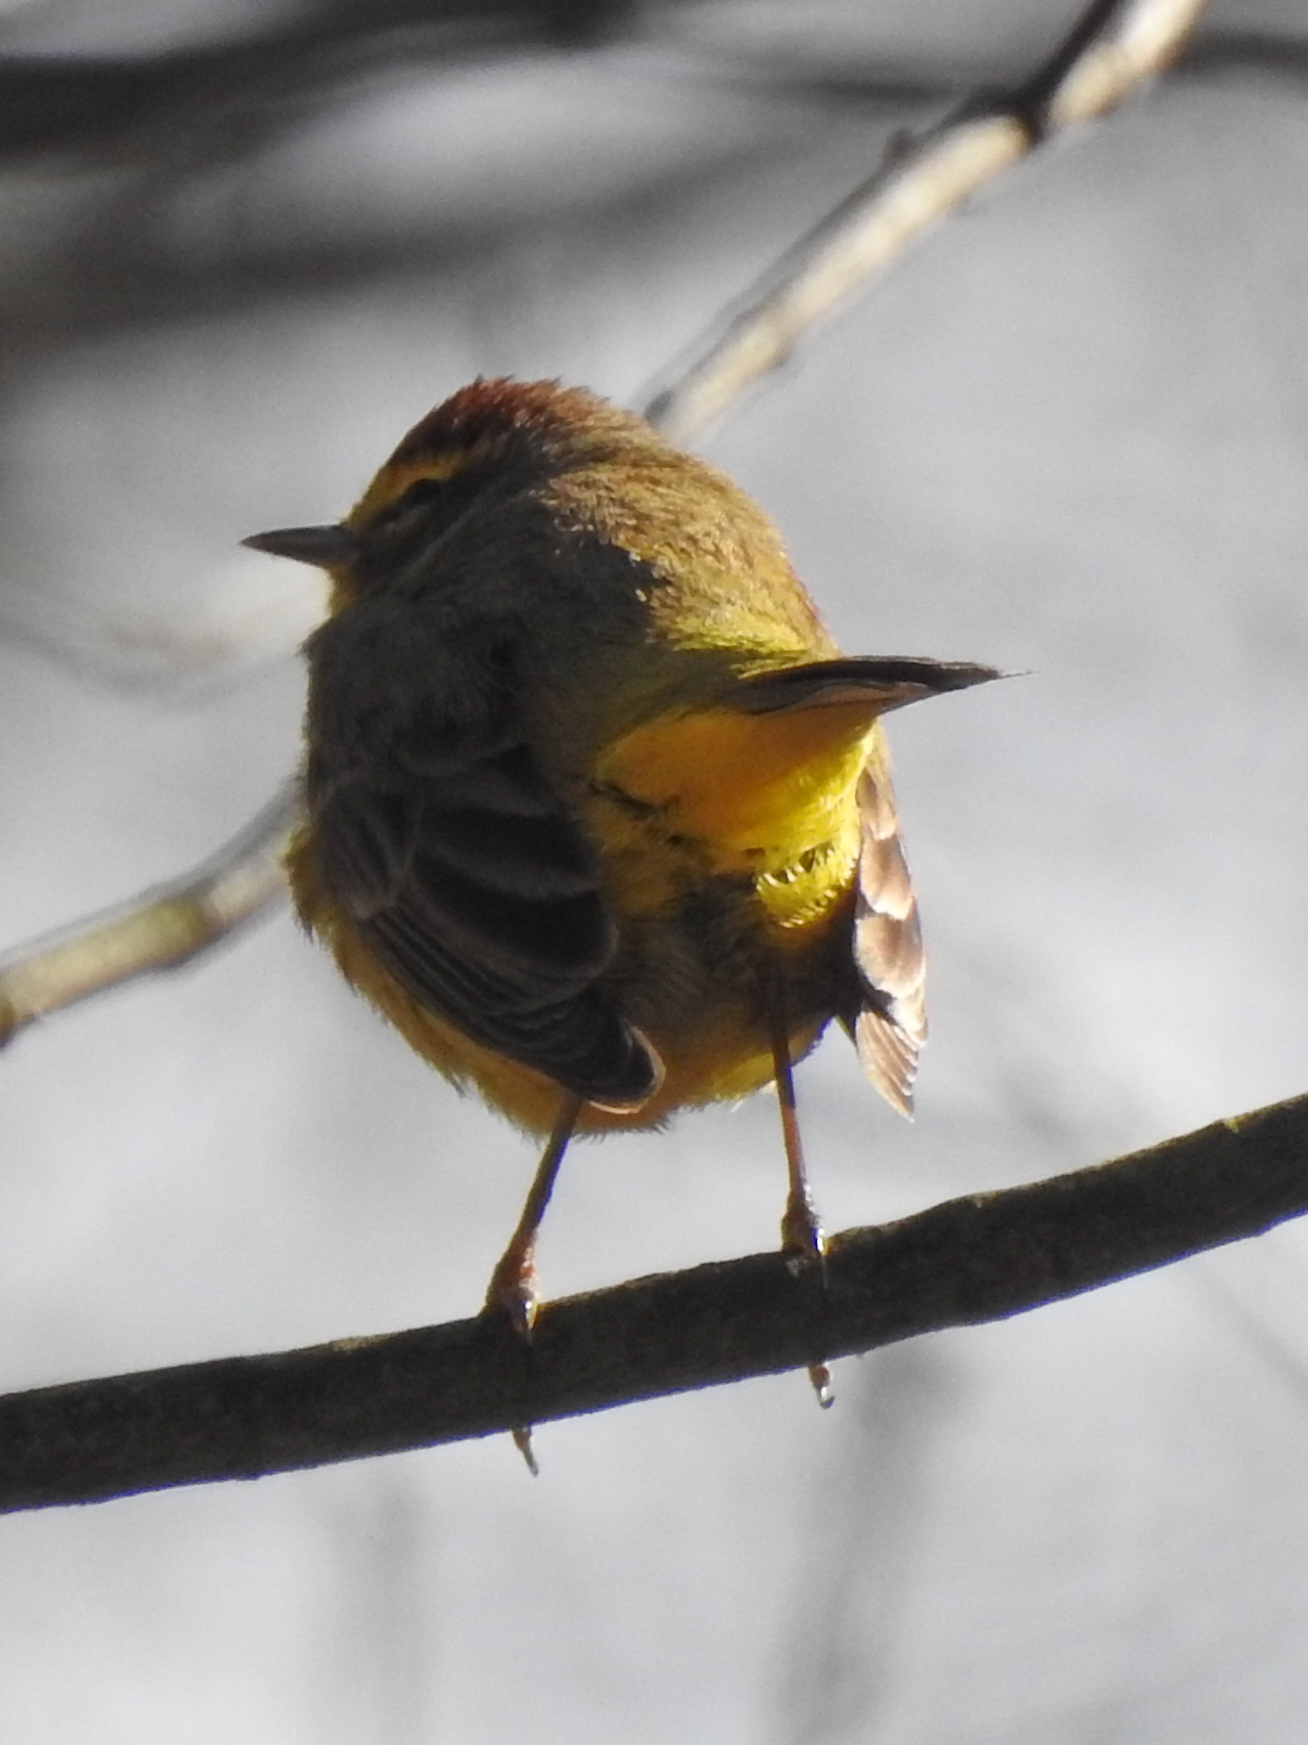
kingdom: Animalia
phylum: Chordata
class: Aves
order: Passeriformes
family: Parulidae
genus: Setophaga
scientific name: Setophaga palmarum
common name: Palm warbler
